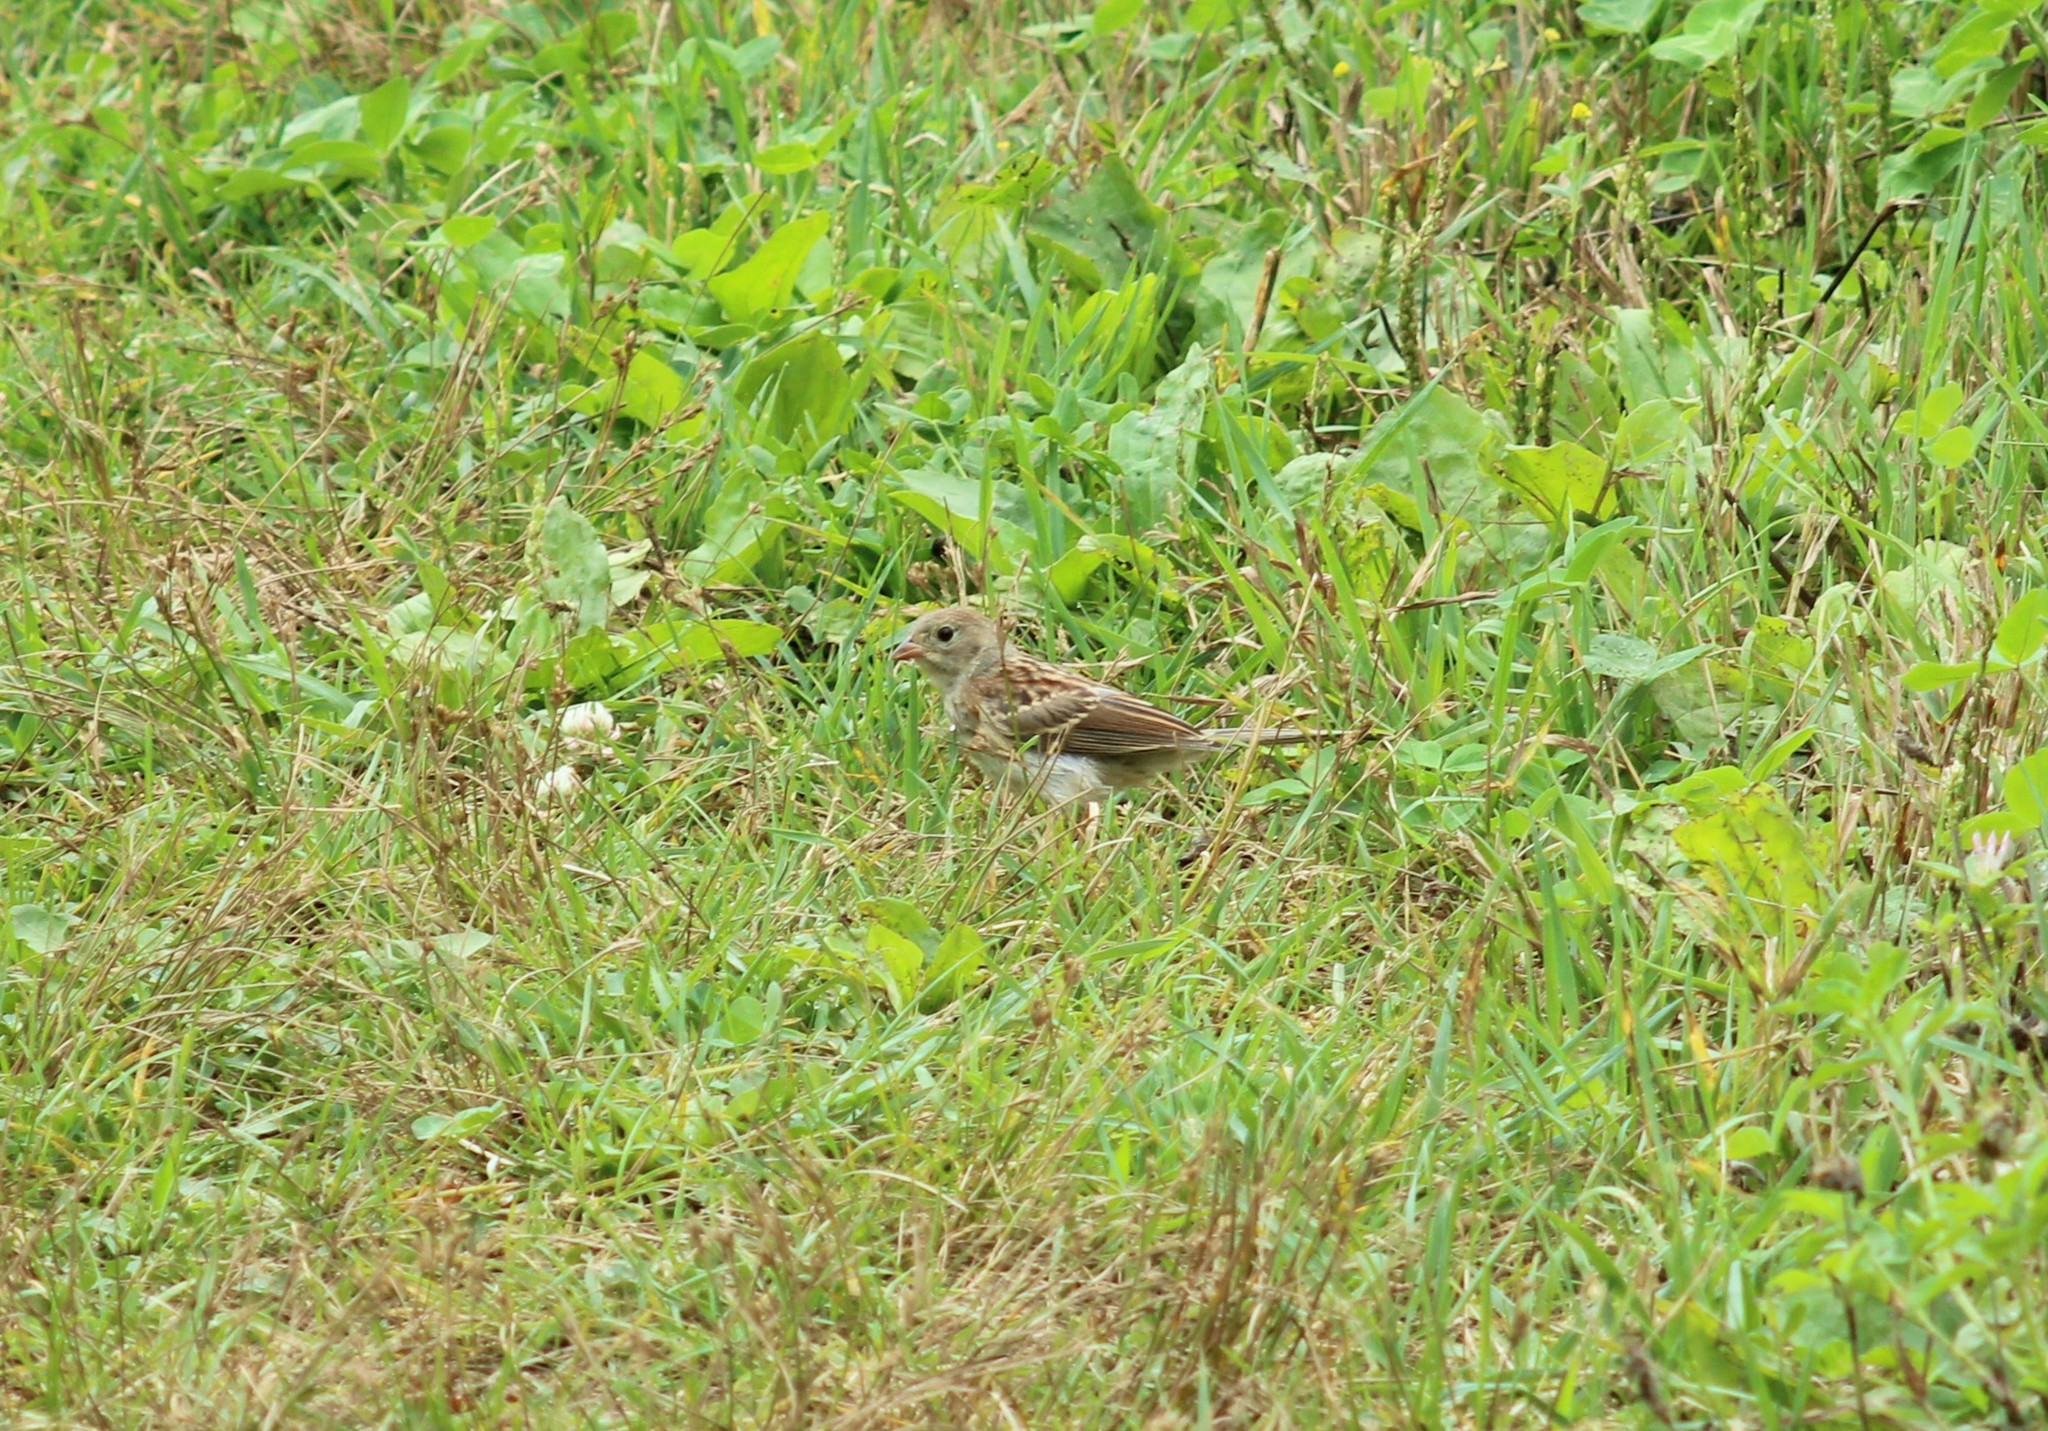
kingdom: Animalia
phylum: Chordata
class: Aves
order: Passeriformes
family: Passerellidae
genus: Spizella
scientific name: Spizella pusilla
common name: Field sparrow
